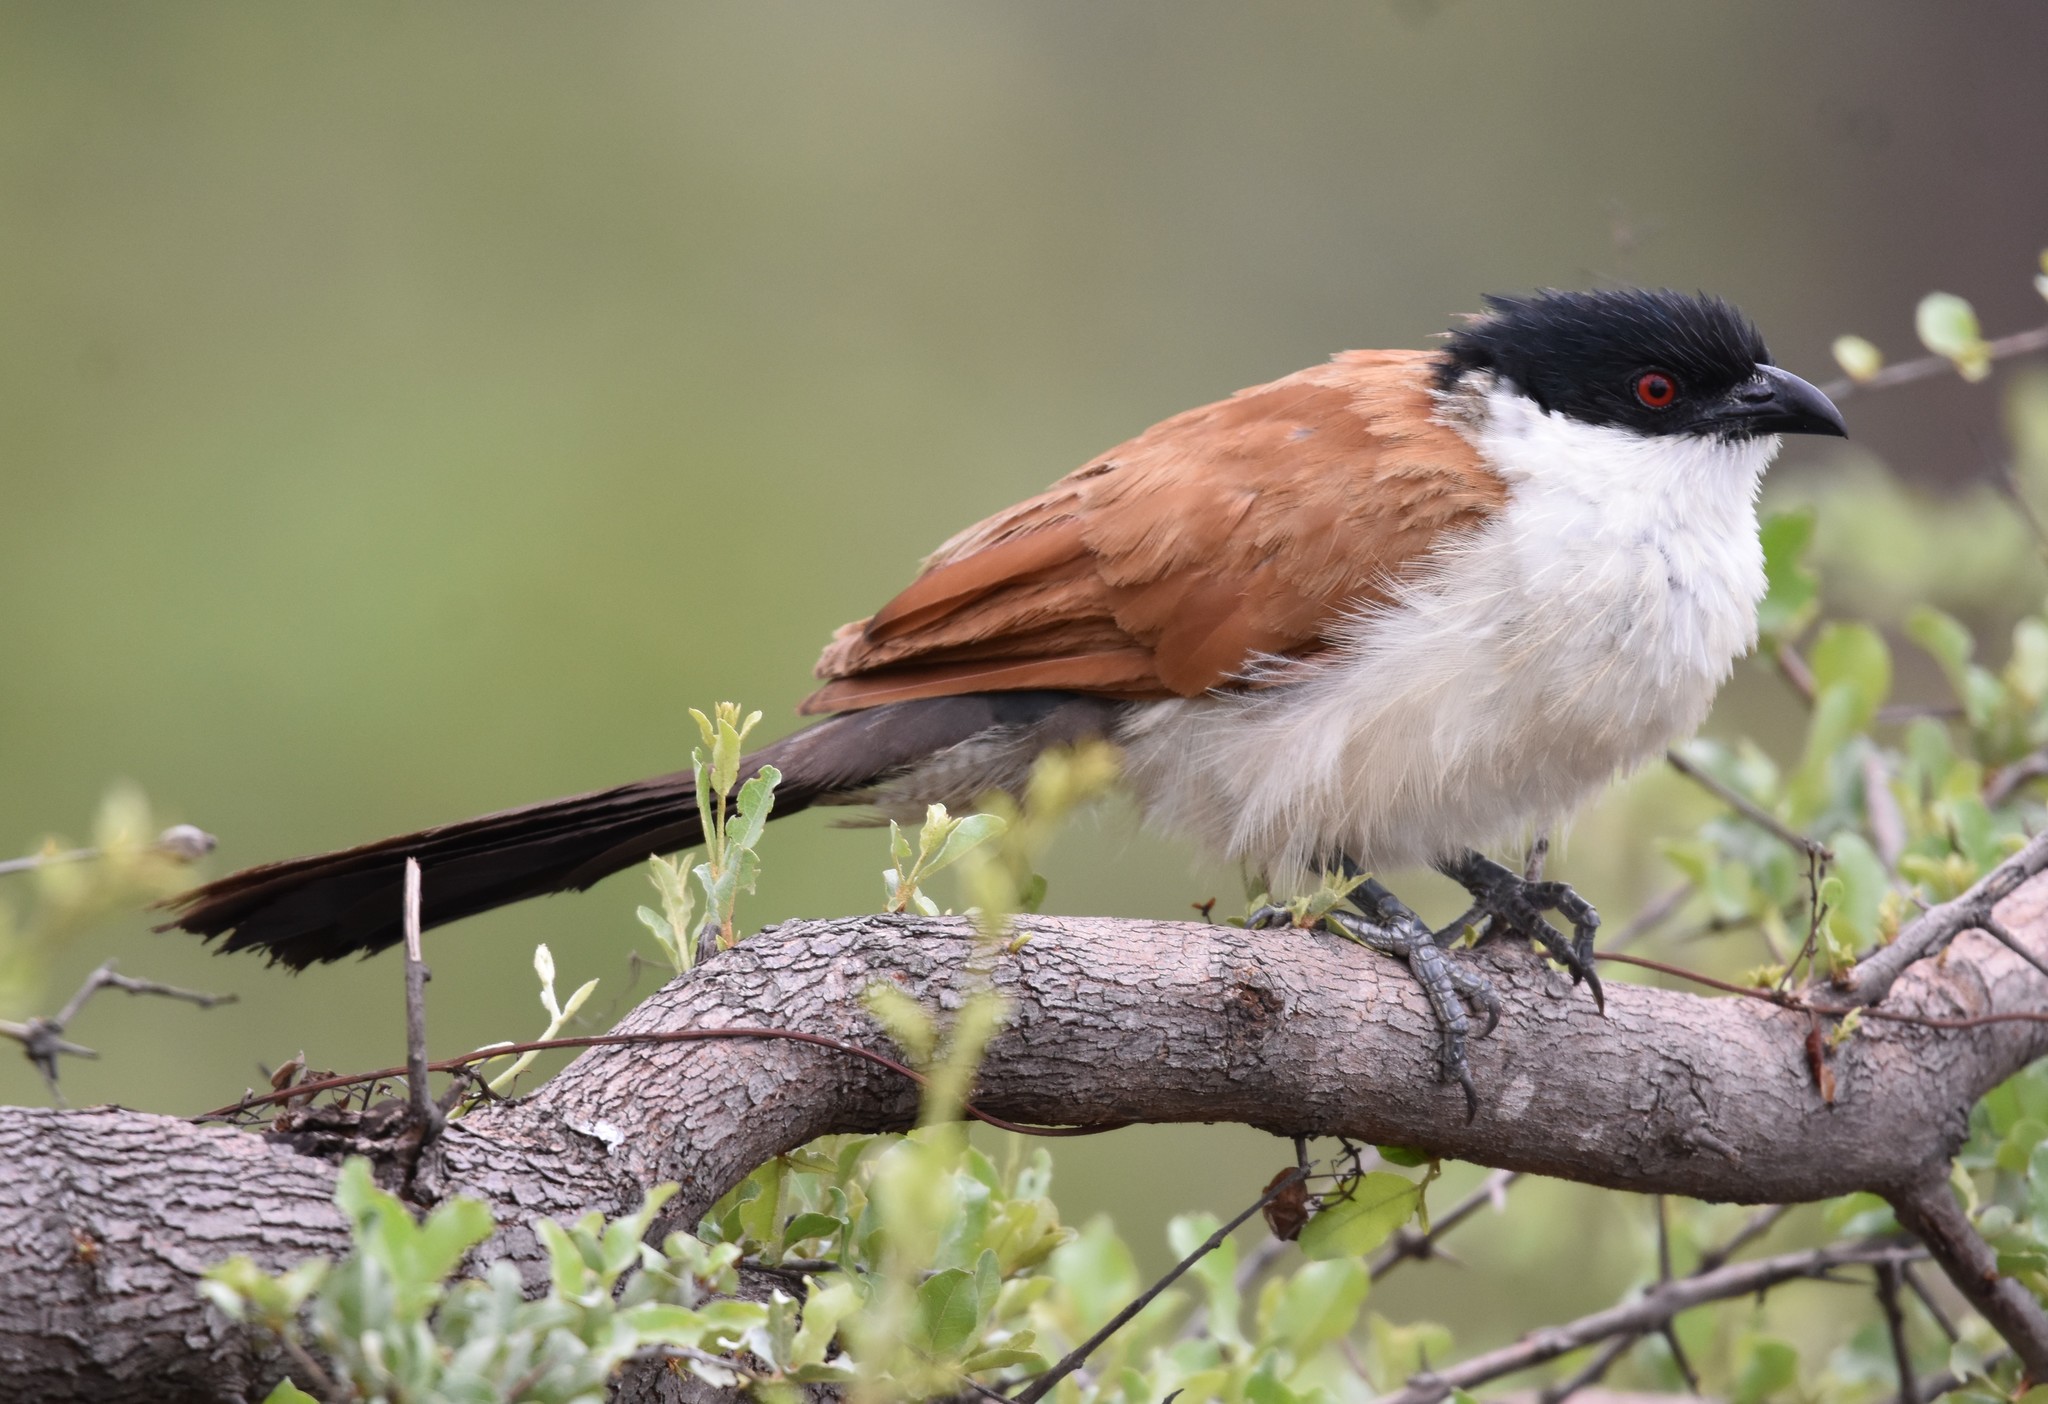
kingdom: Animalia
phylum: Chordata
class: Aves
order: Cuculiformes
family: Cuculidae
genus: Centropus
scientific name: Centropus senegalensis
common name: Senegal coucal
